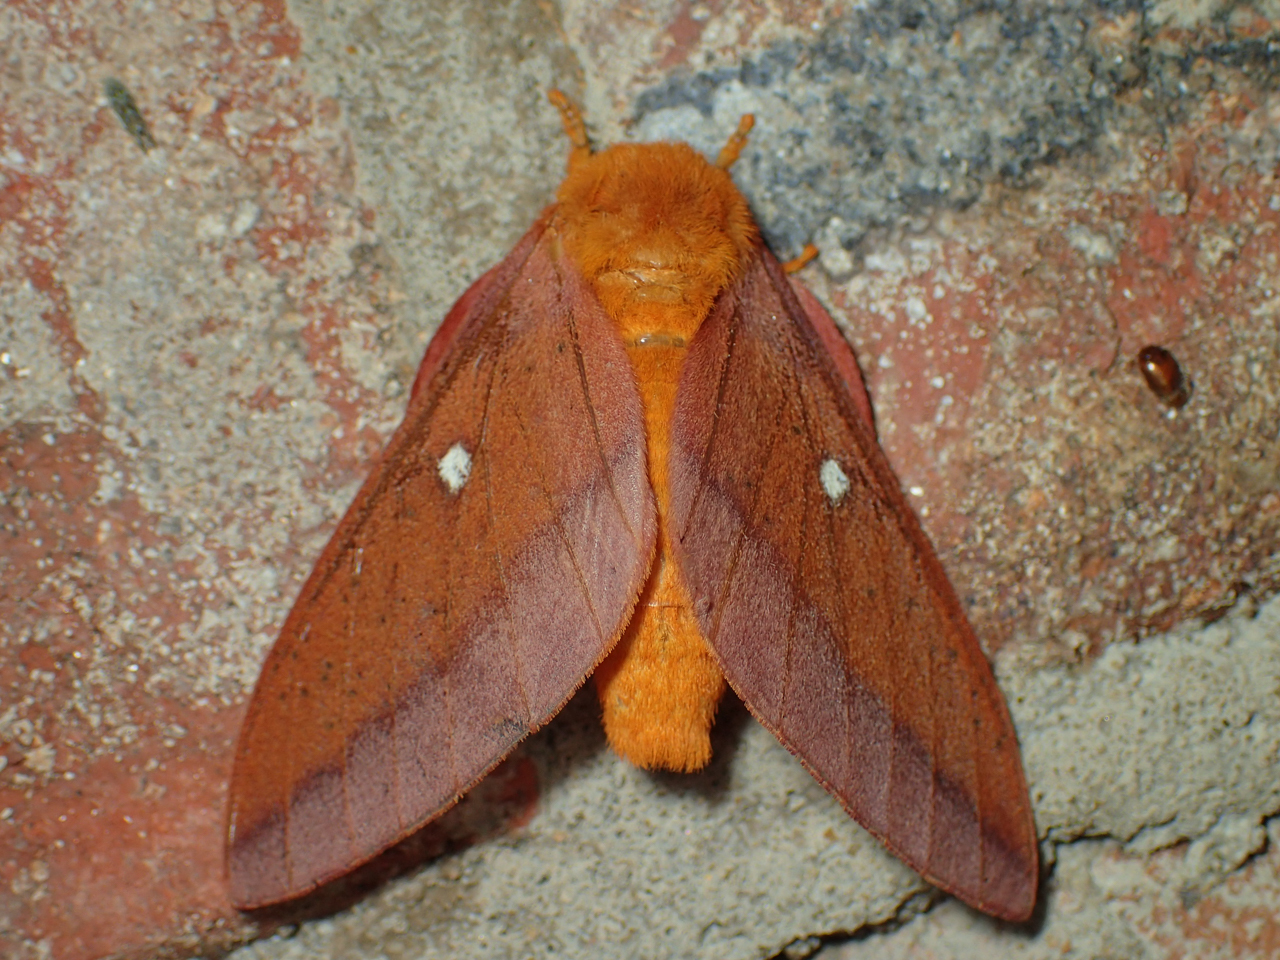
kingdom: Animalia
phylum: Arthropoda
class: Insecta
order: Lepidoptera
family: Saturniidae
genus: Anisota
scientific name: Anisota virginiensis
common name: Pink striped oakworm moth
